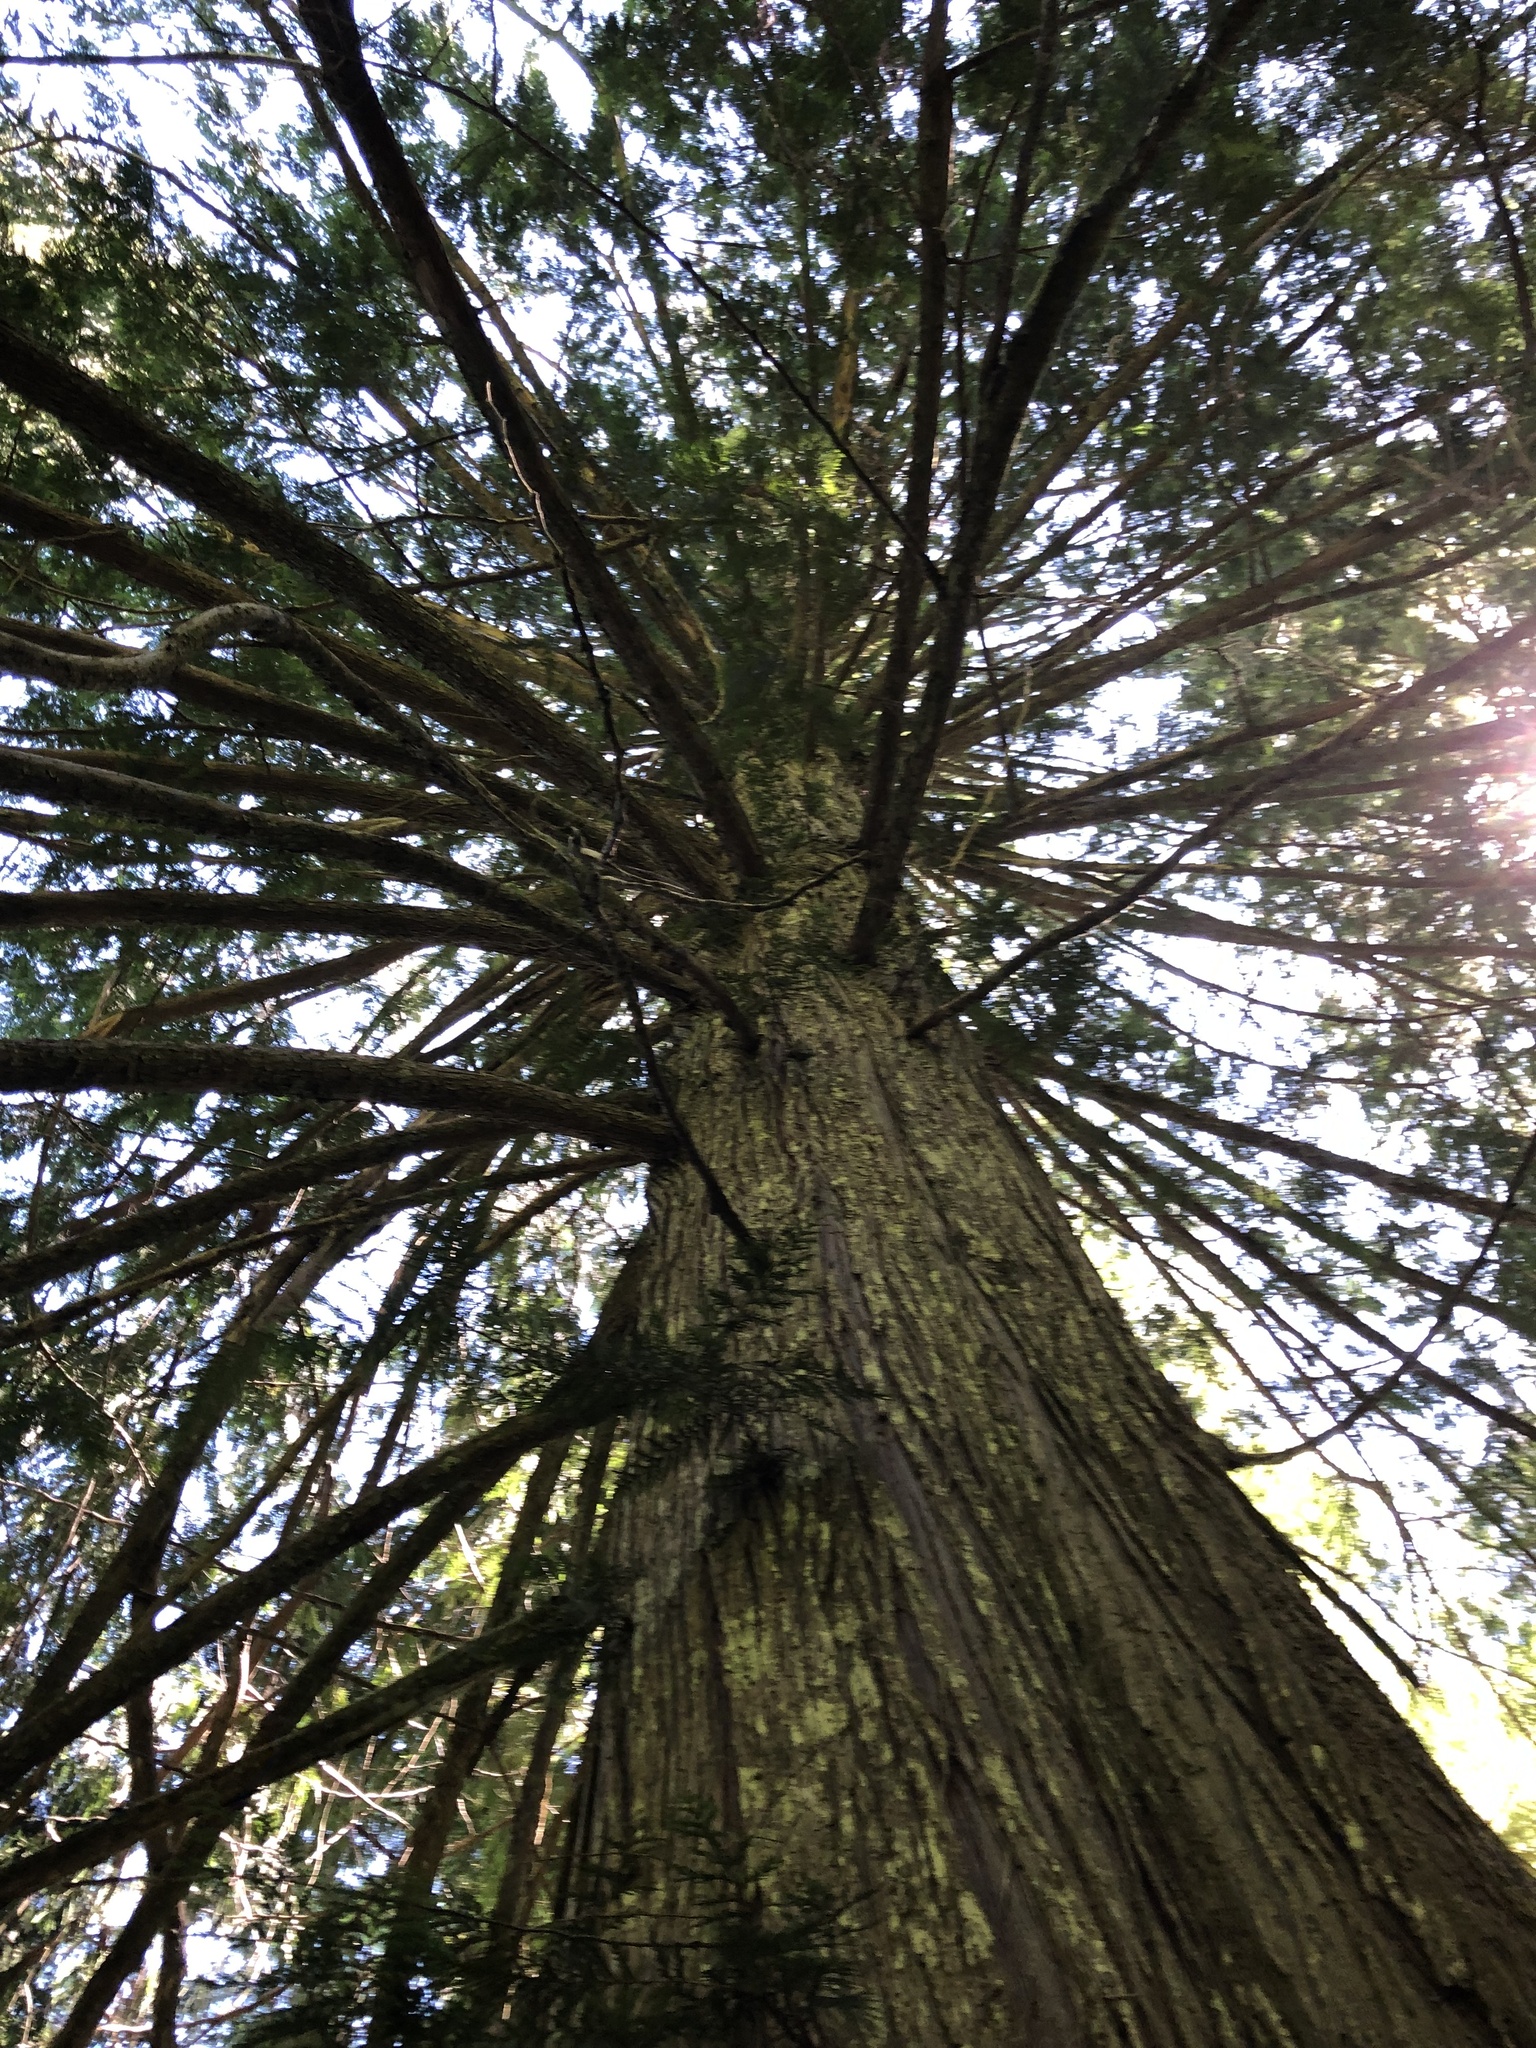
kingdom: Plantae
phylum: Tracheophyta
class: Pinopsida
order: Pinales
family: Cupressaceae
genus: Thuja
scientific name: Thuja plicata
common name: Western red-cedar
